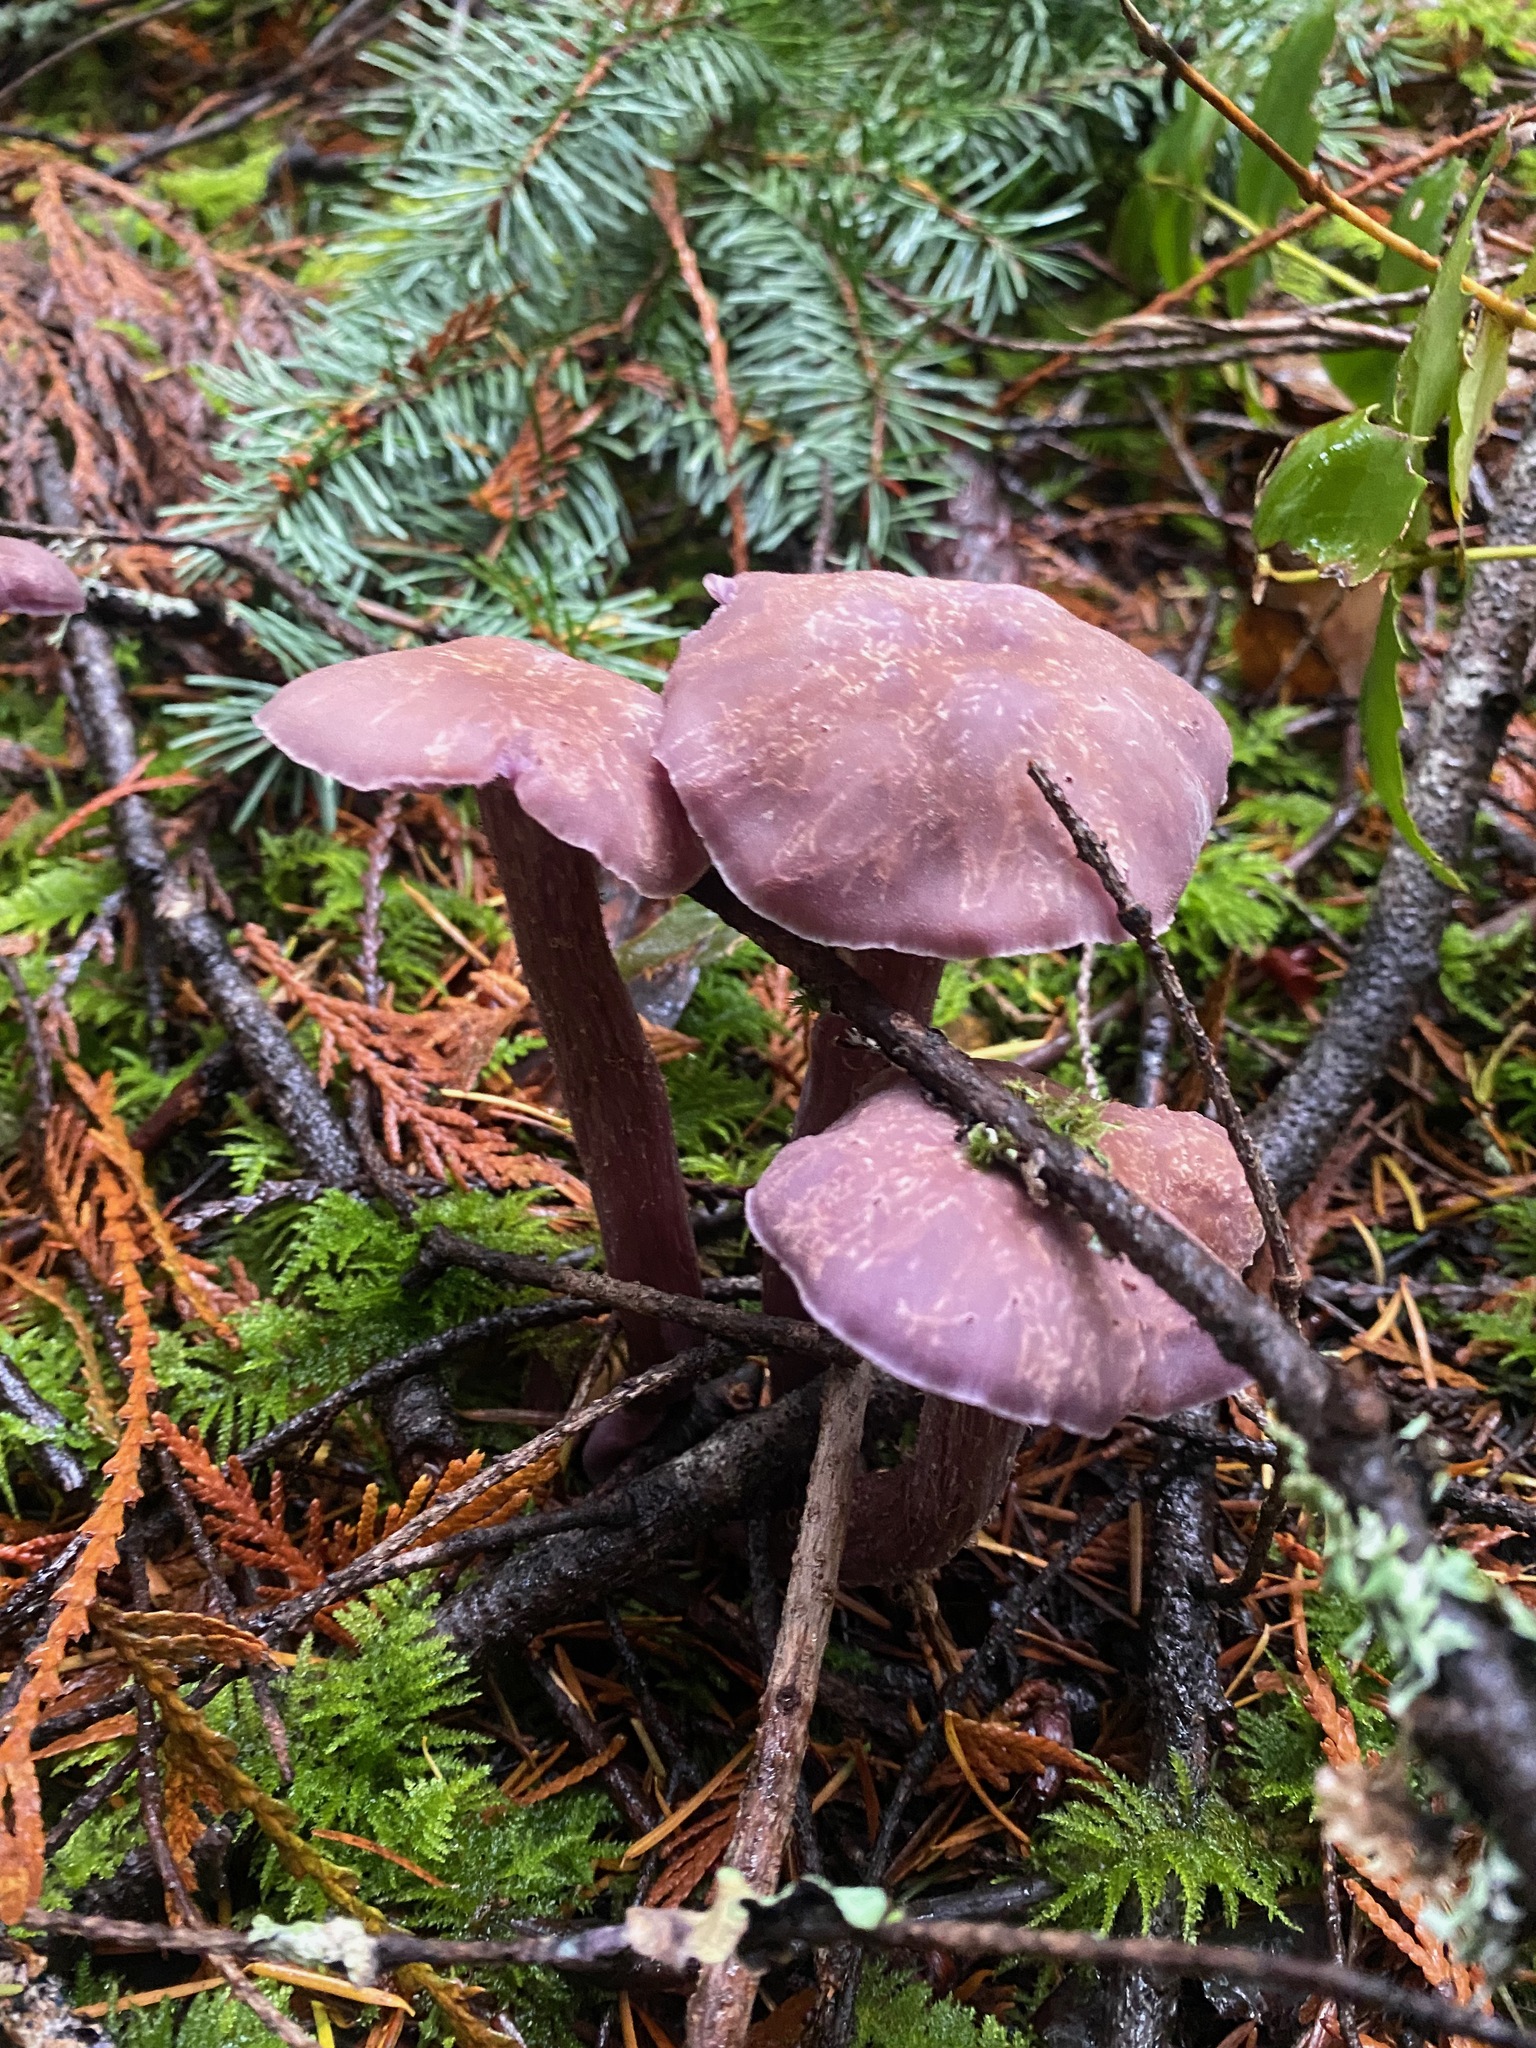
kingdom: Fungi
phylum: Basidiomycota
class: Agaricomycetes
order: Agaricales
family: Hydnangiaceae
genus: Laccaria
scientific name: Laccaria amethysteo-occidentalis
